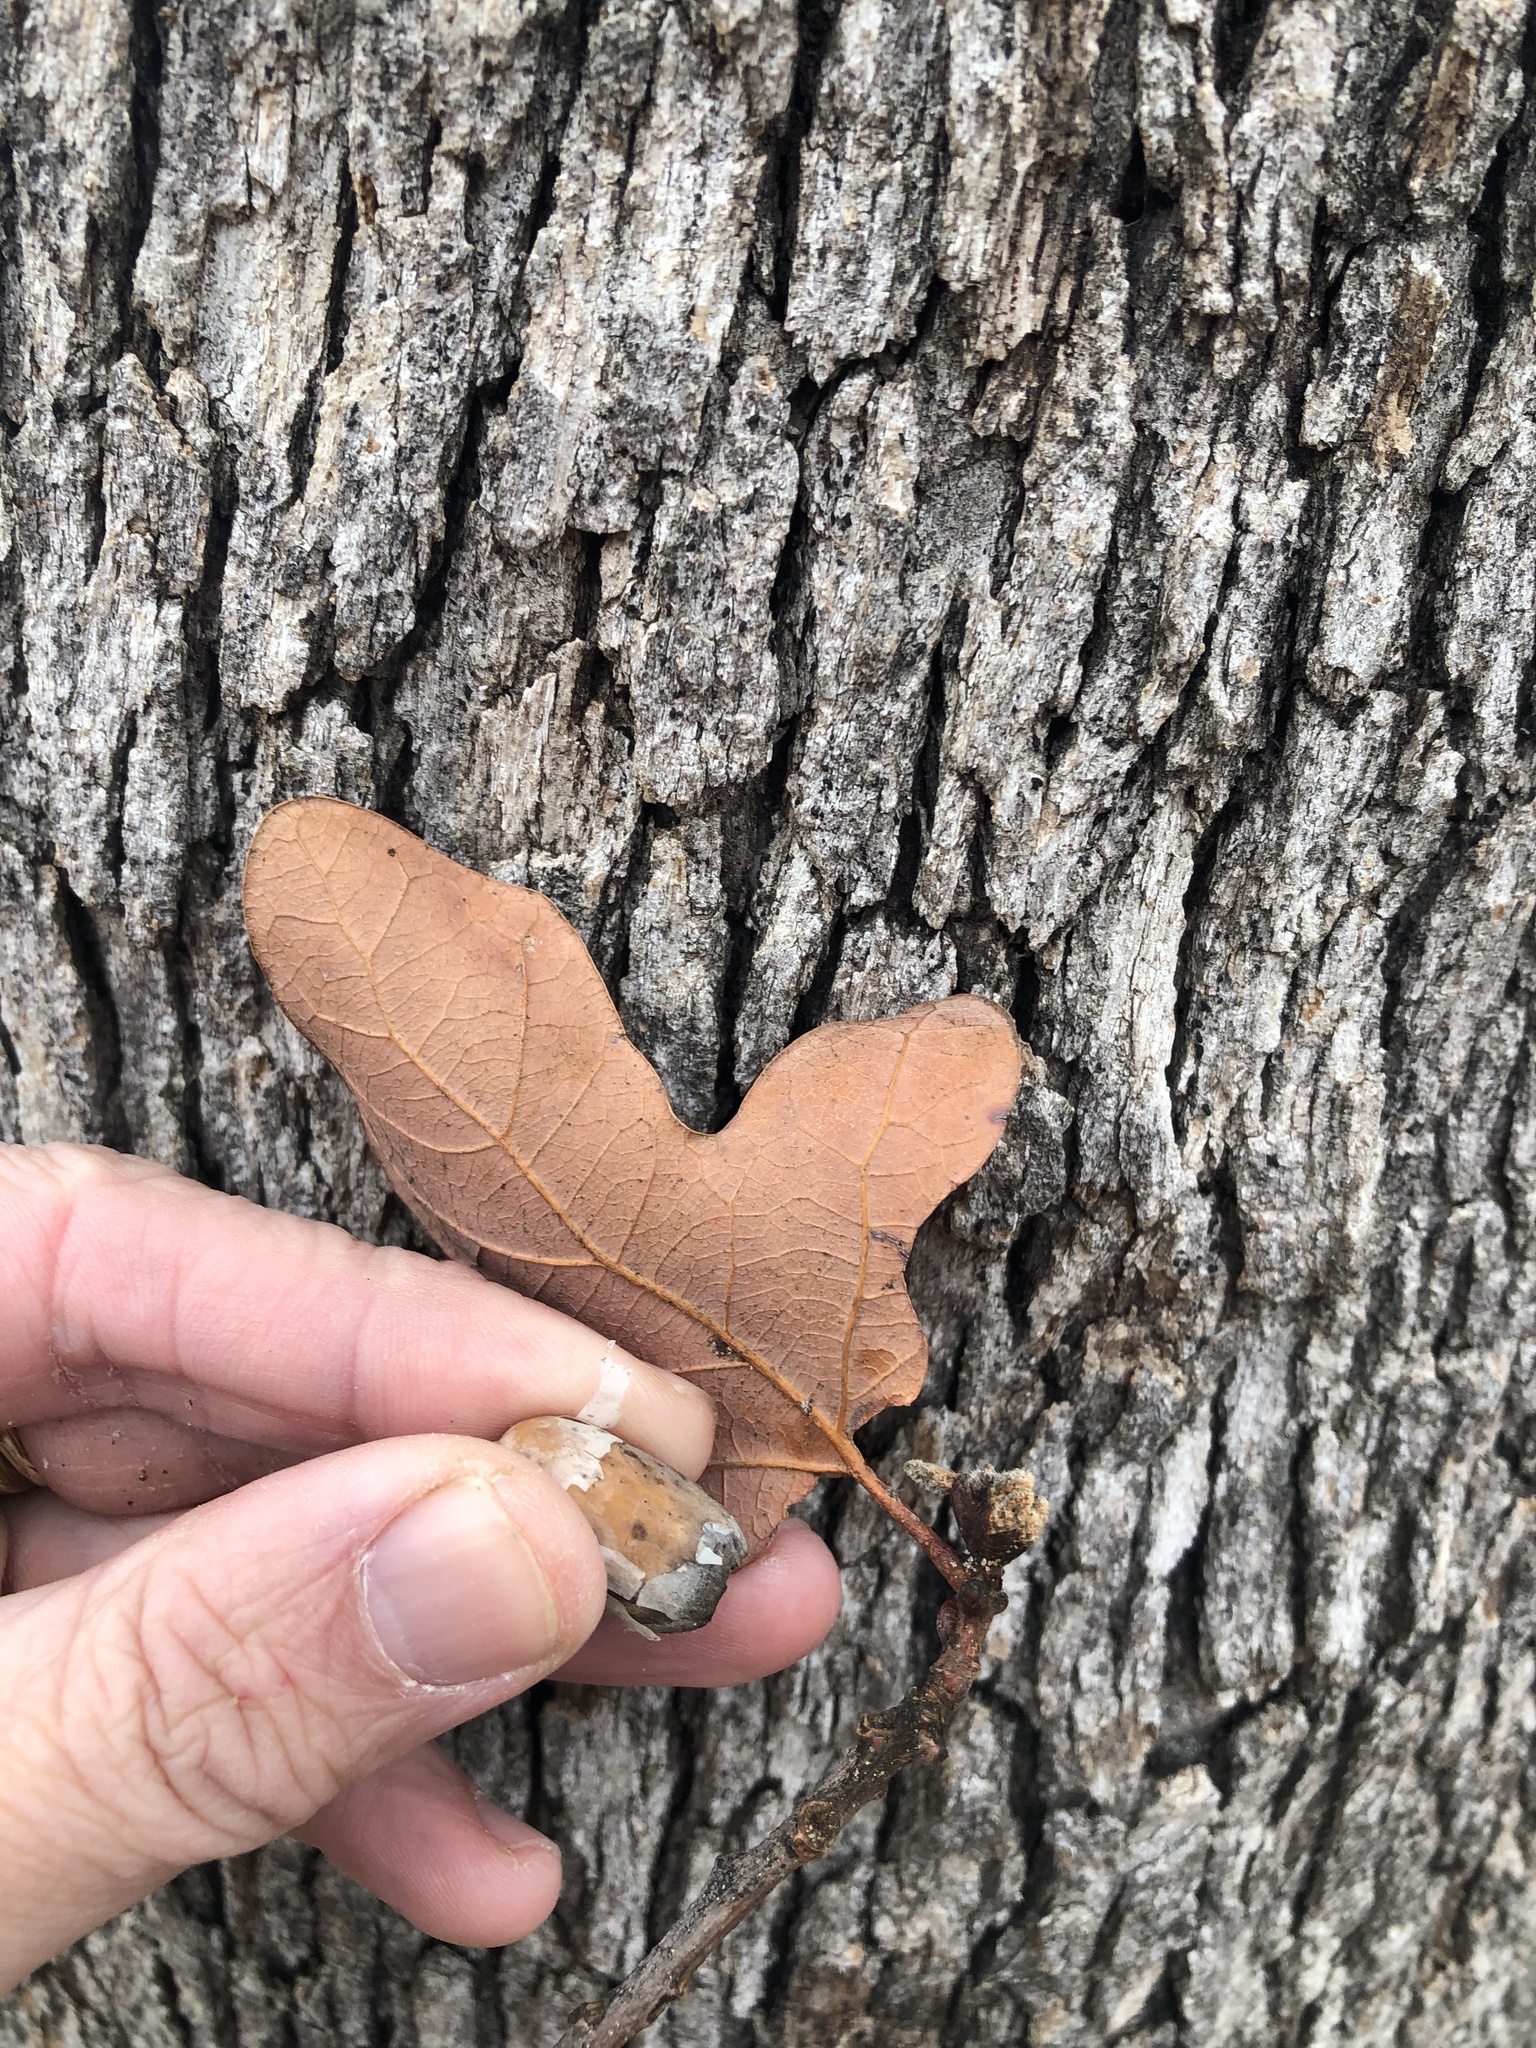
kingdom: Plantae
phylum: Tracheophyta
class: Magnoliopsida
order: Fagales
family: Fagaceae
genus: Quercus
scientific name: Quercus stellata
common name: Post oak
